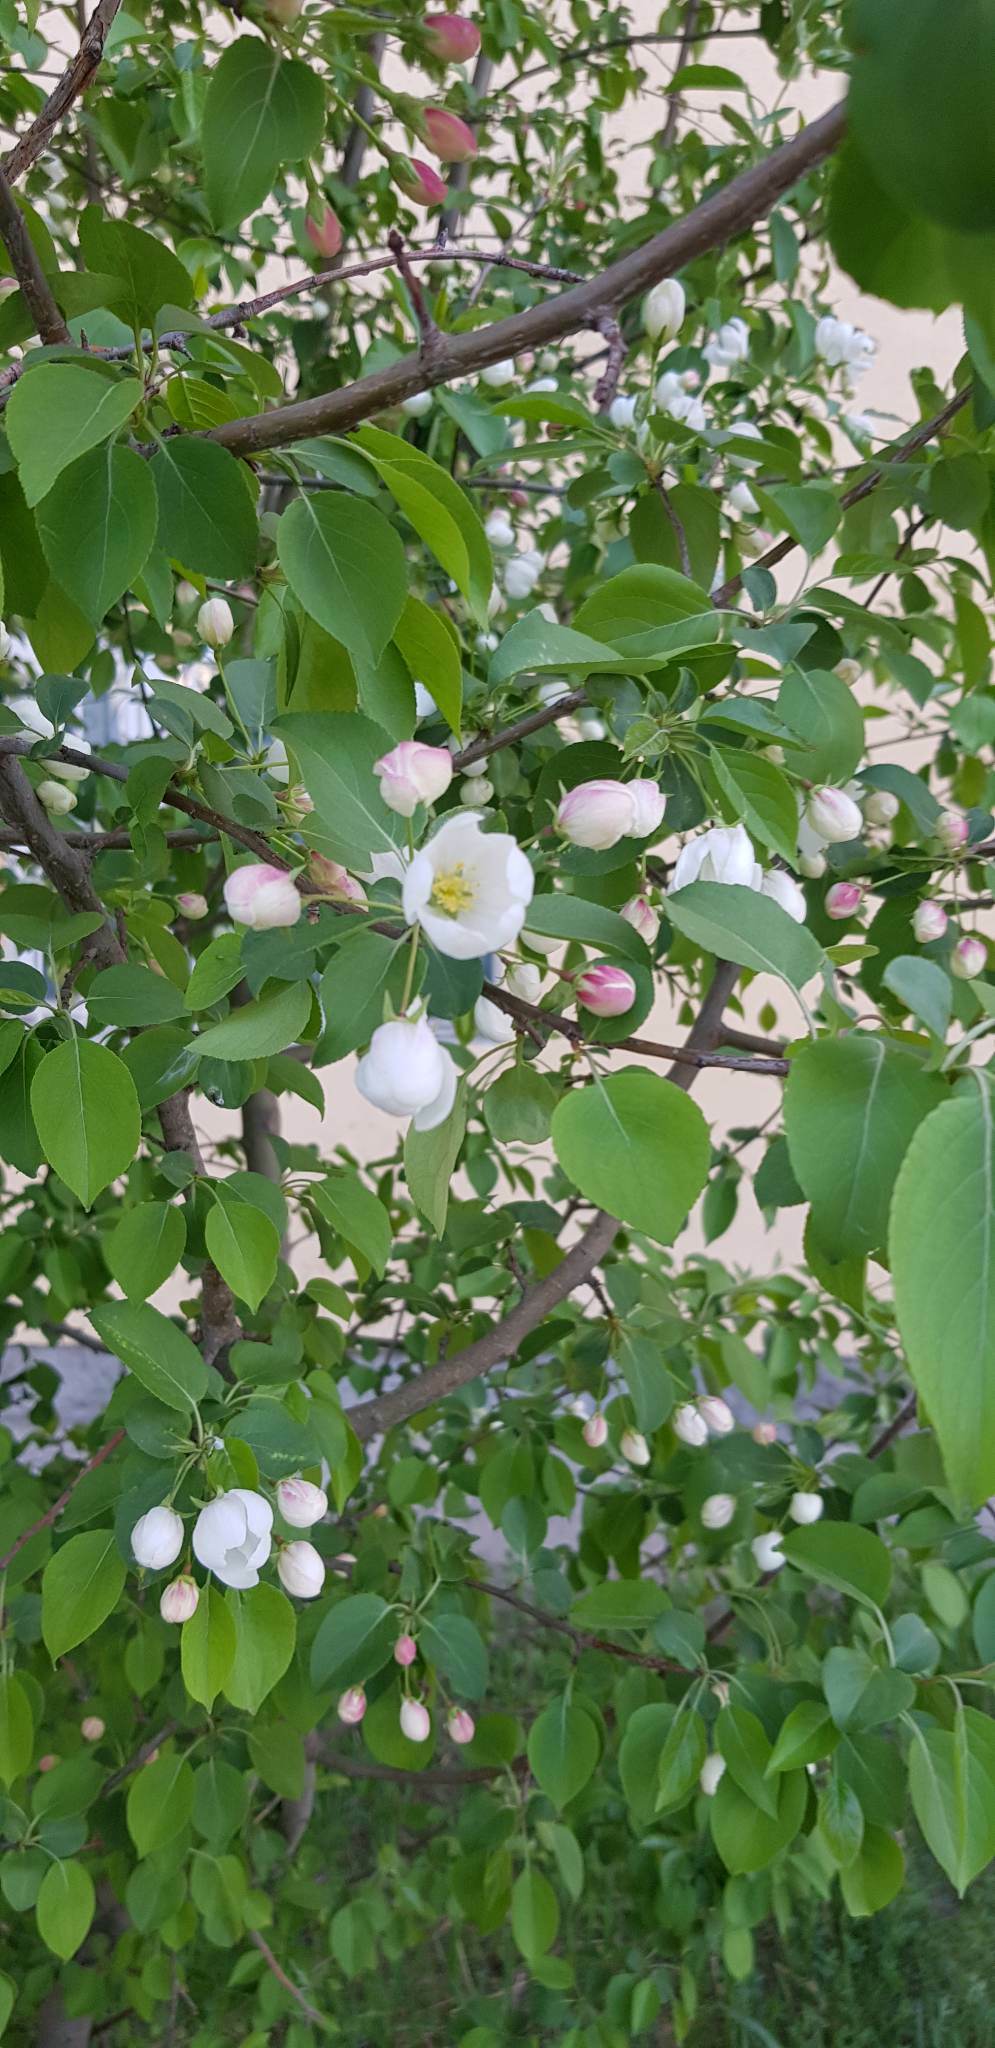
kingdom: Plantae
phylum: Tracheophyta
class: Magnoliopsida
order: Rosales
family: Rosaceae
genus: Malus
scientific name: Malus baccata
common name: Siberian crab
